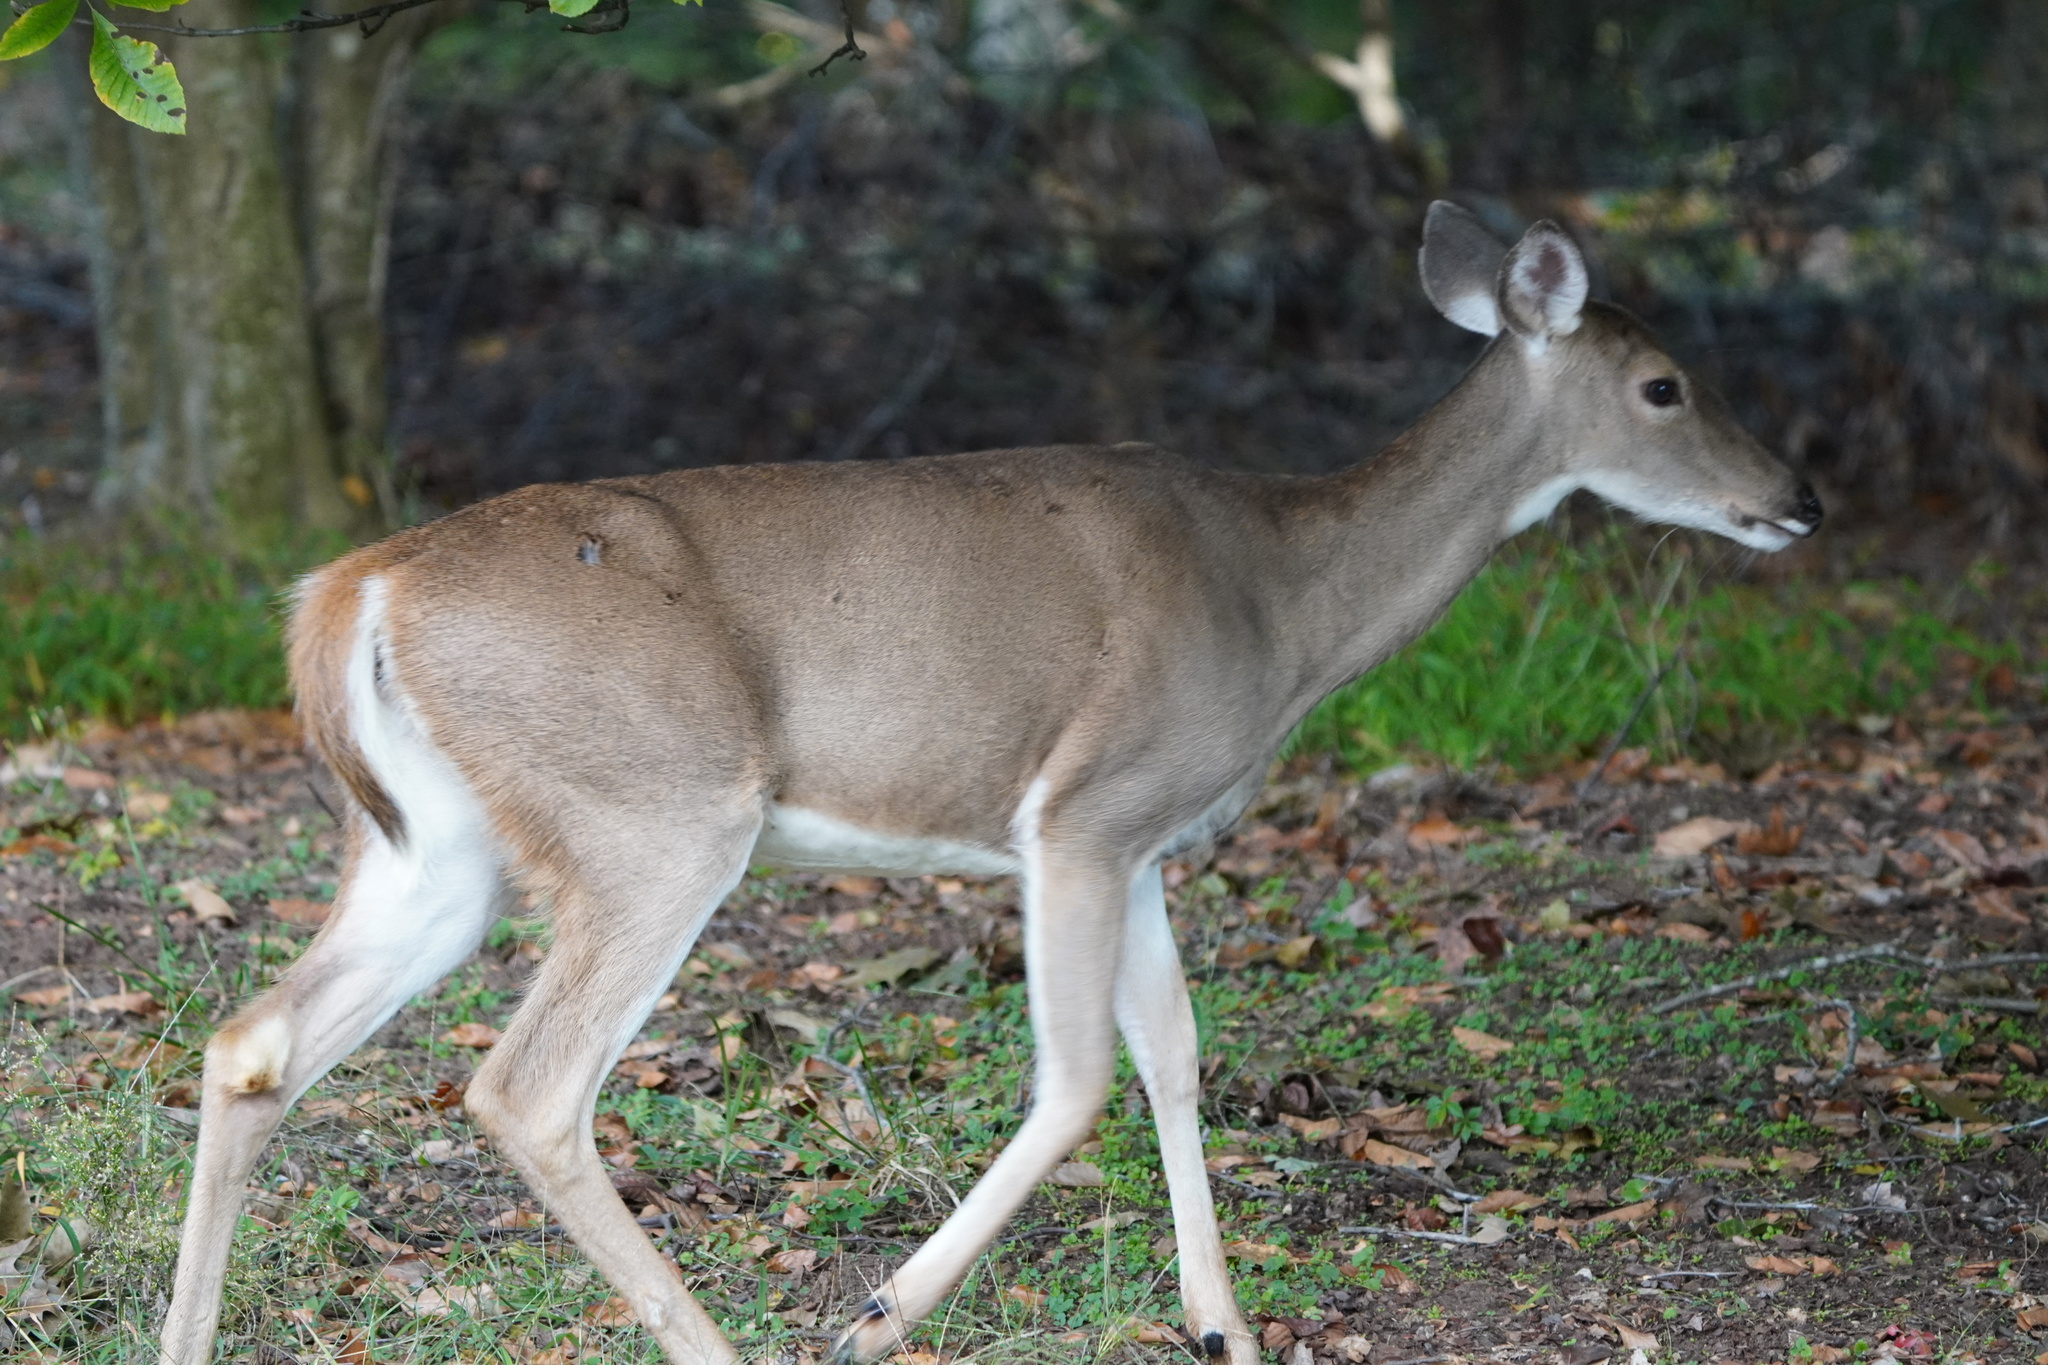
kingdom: Animalia
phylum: Chordata
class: Mammalia
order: Artiodactyla
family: Cervidae
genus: Odocoileus
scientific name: Odocoileus virginianus
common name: White-tailed deer
